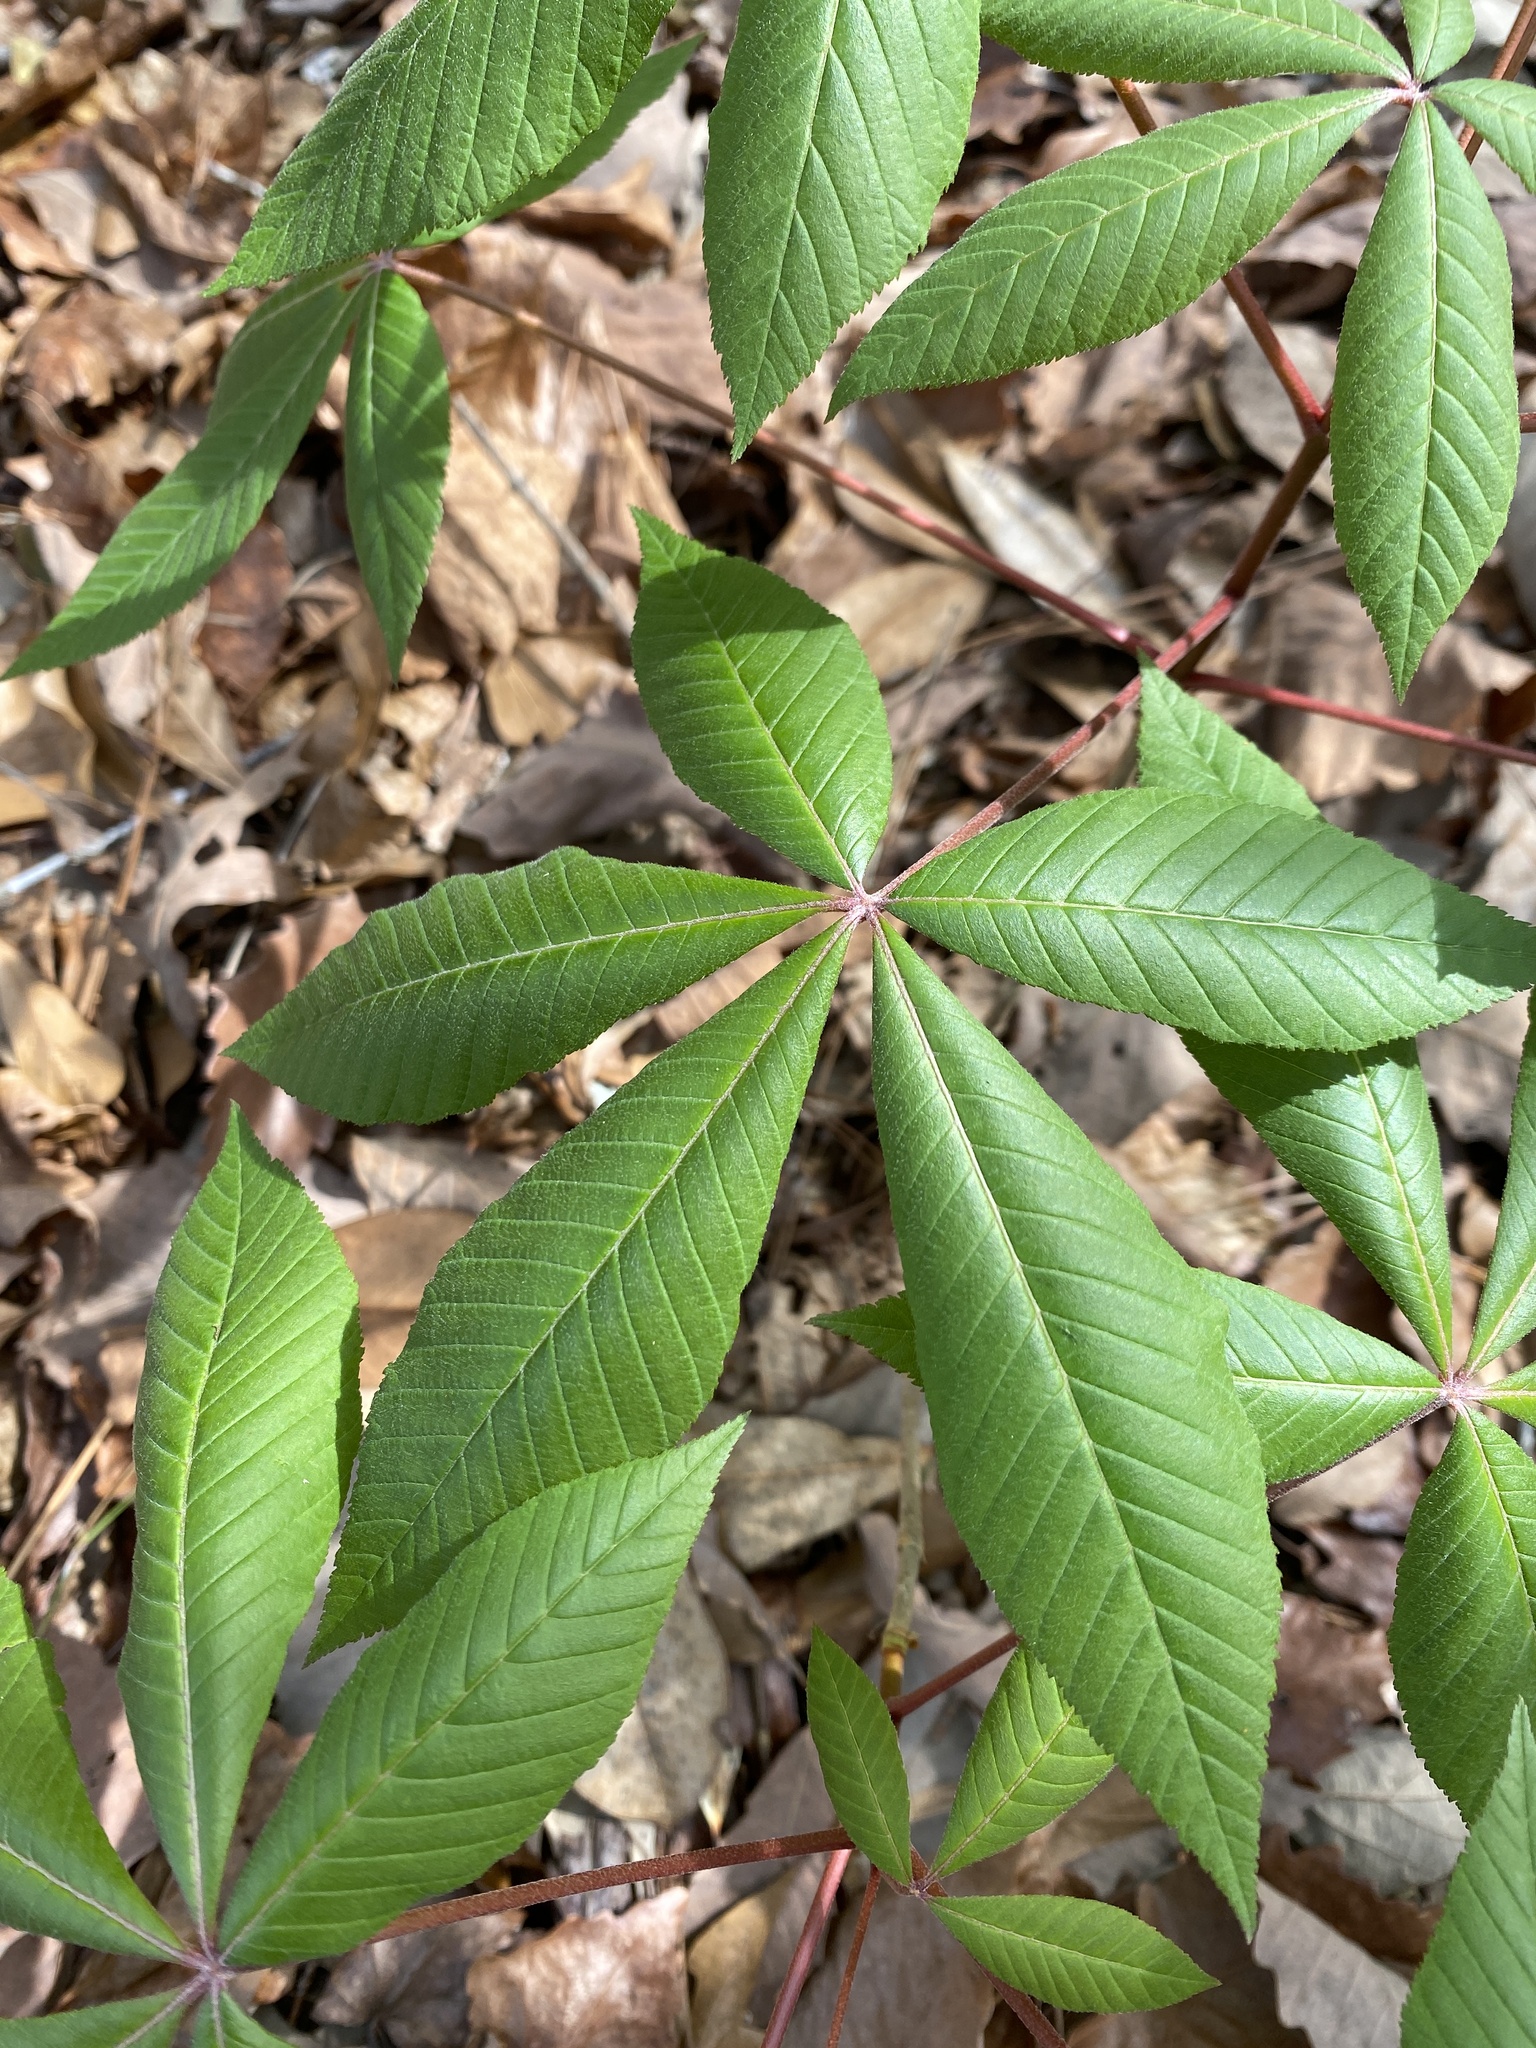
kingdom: Plantae
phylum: Tracheophyta
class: Magnoliopsida
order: Sapindales
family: Sapindaceae
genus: Aesculus
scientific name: Aesculus pavia
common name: Red buckeye
